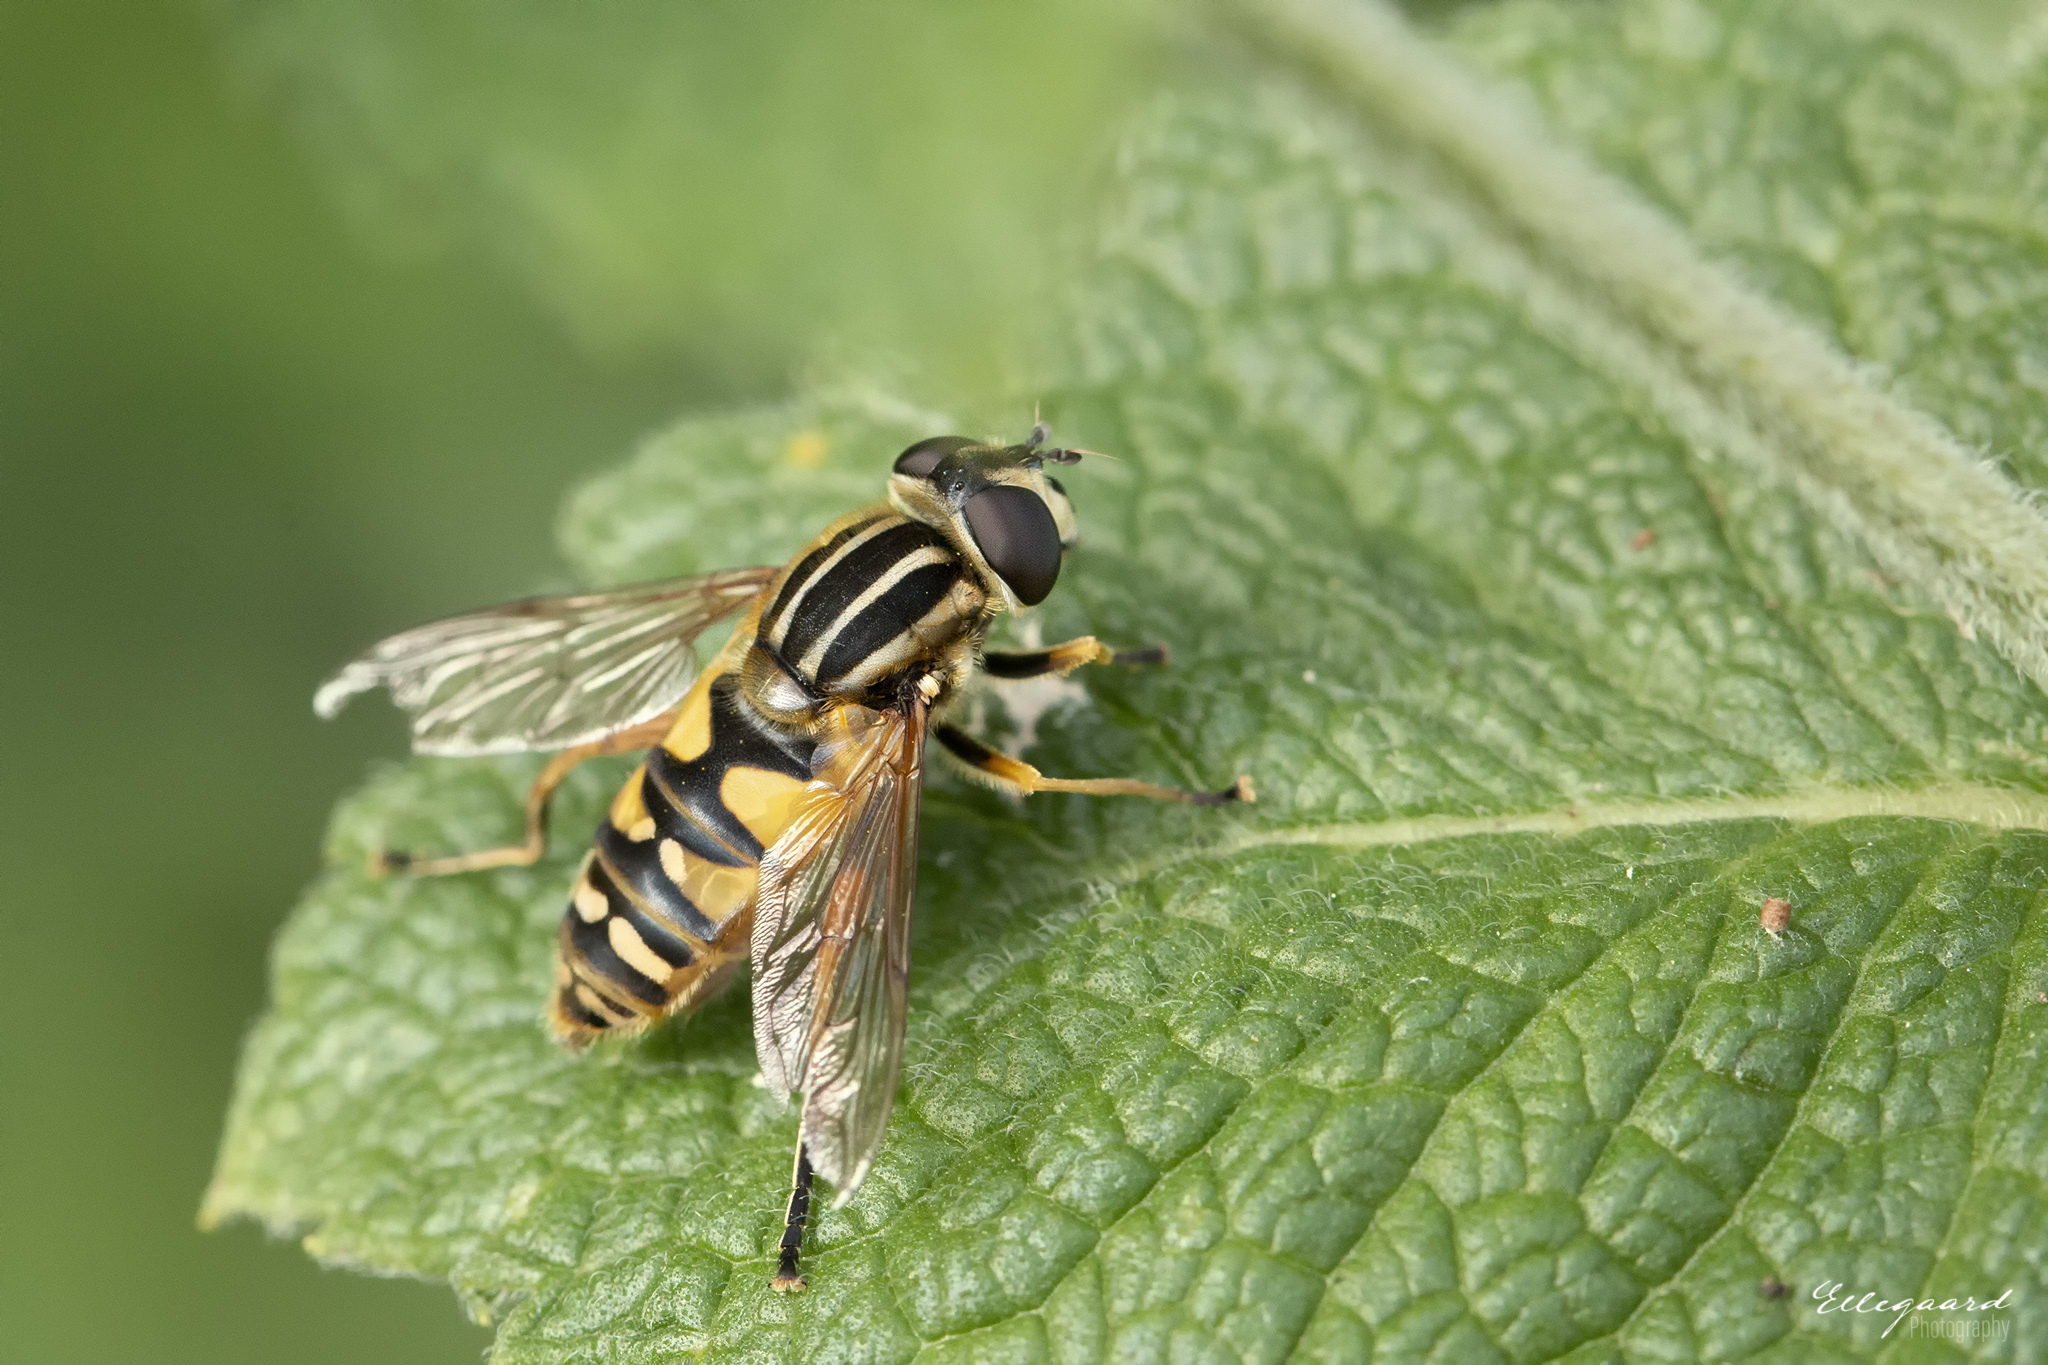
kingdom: Animalia
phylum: Arthropoda
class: Insecta
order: Diptera
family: Syrphidae
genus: Helophilus
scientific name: Helophilus pendulus
